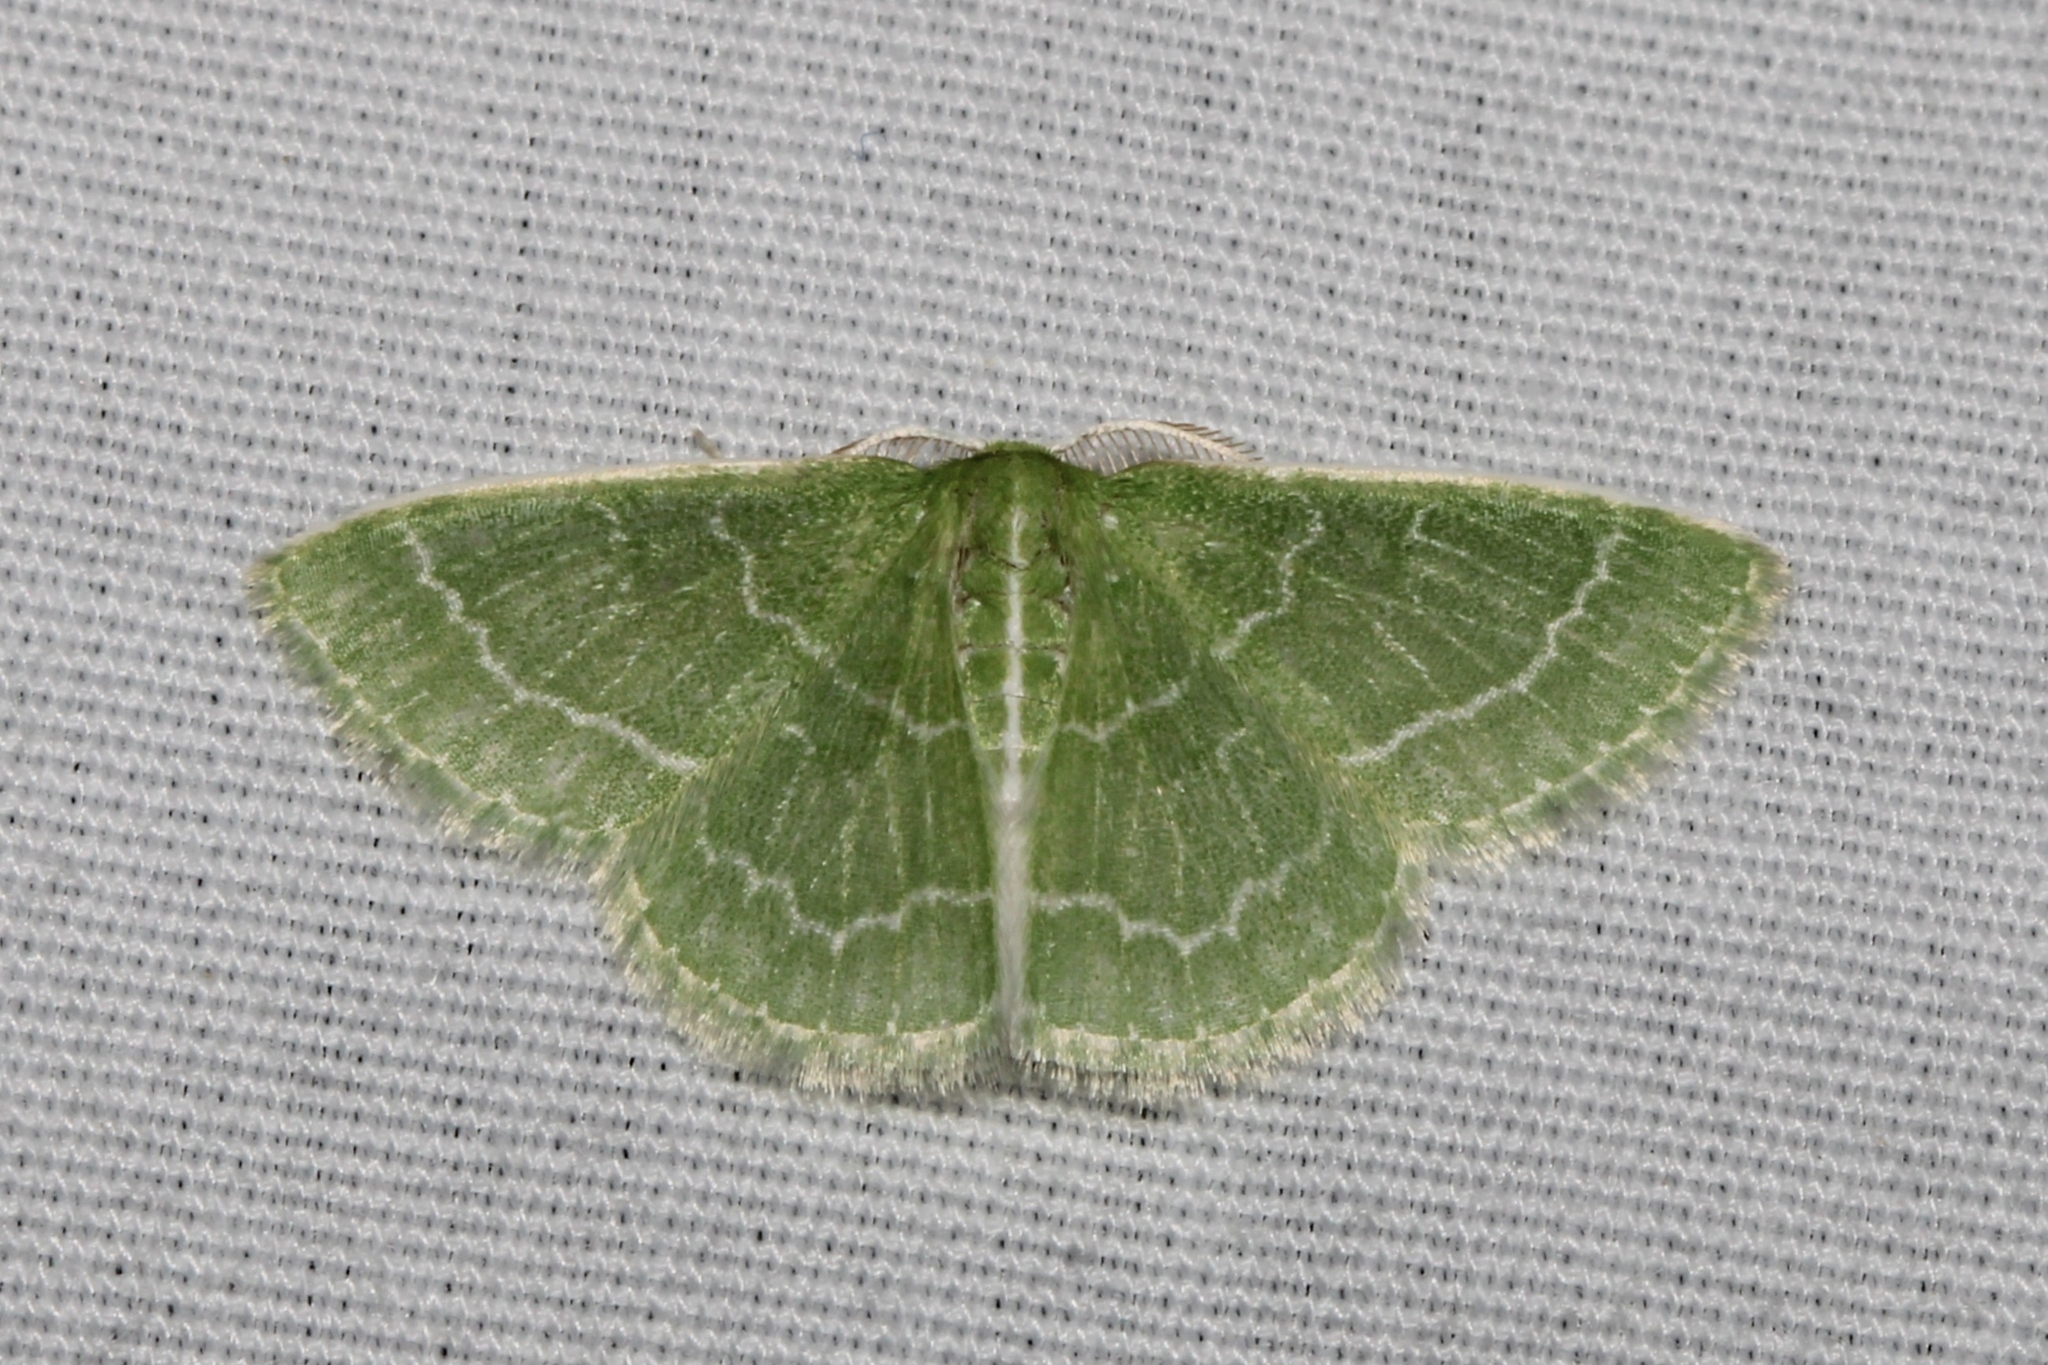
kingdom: Animalia
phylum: Arthropoda
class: Insecta
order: Lepidoptera
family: Geometridae
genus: Synchlora
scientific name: Synchlora aerata
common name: Wavy-lined emerald
